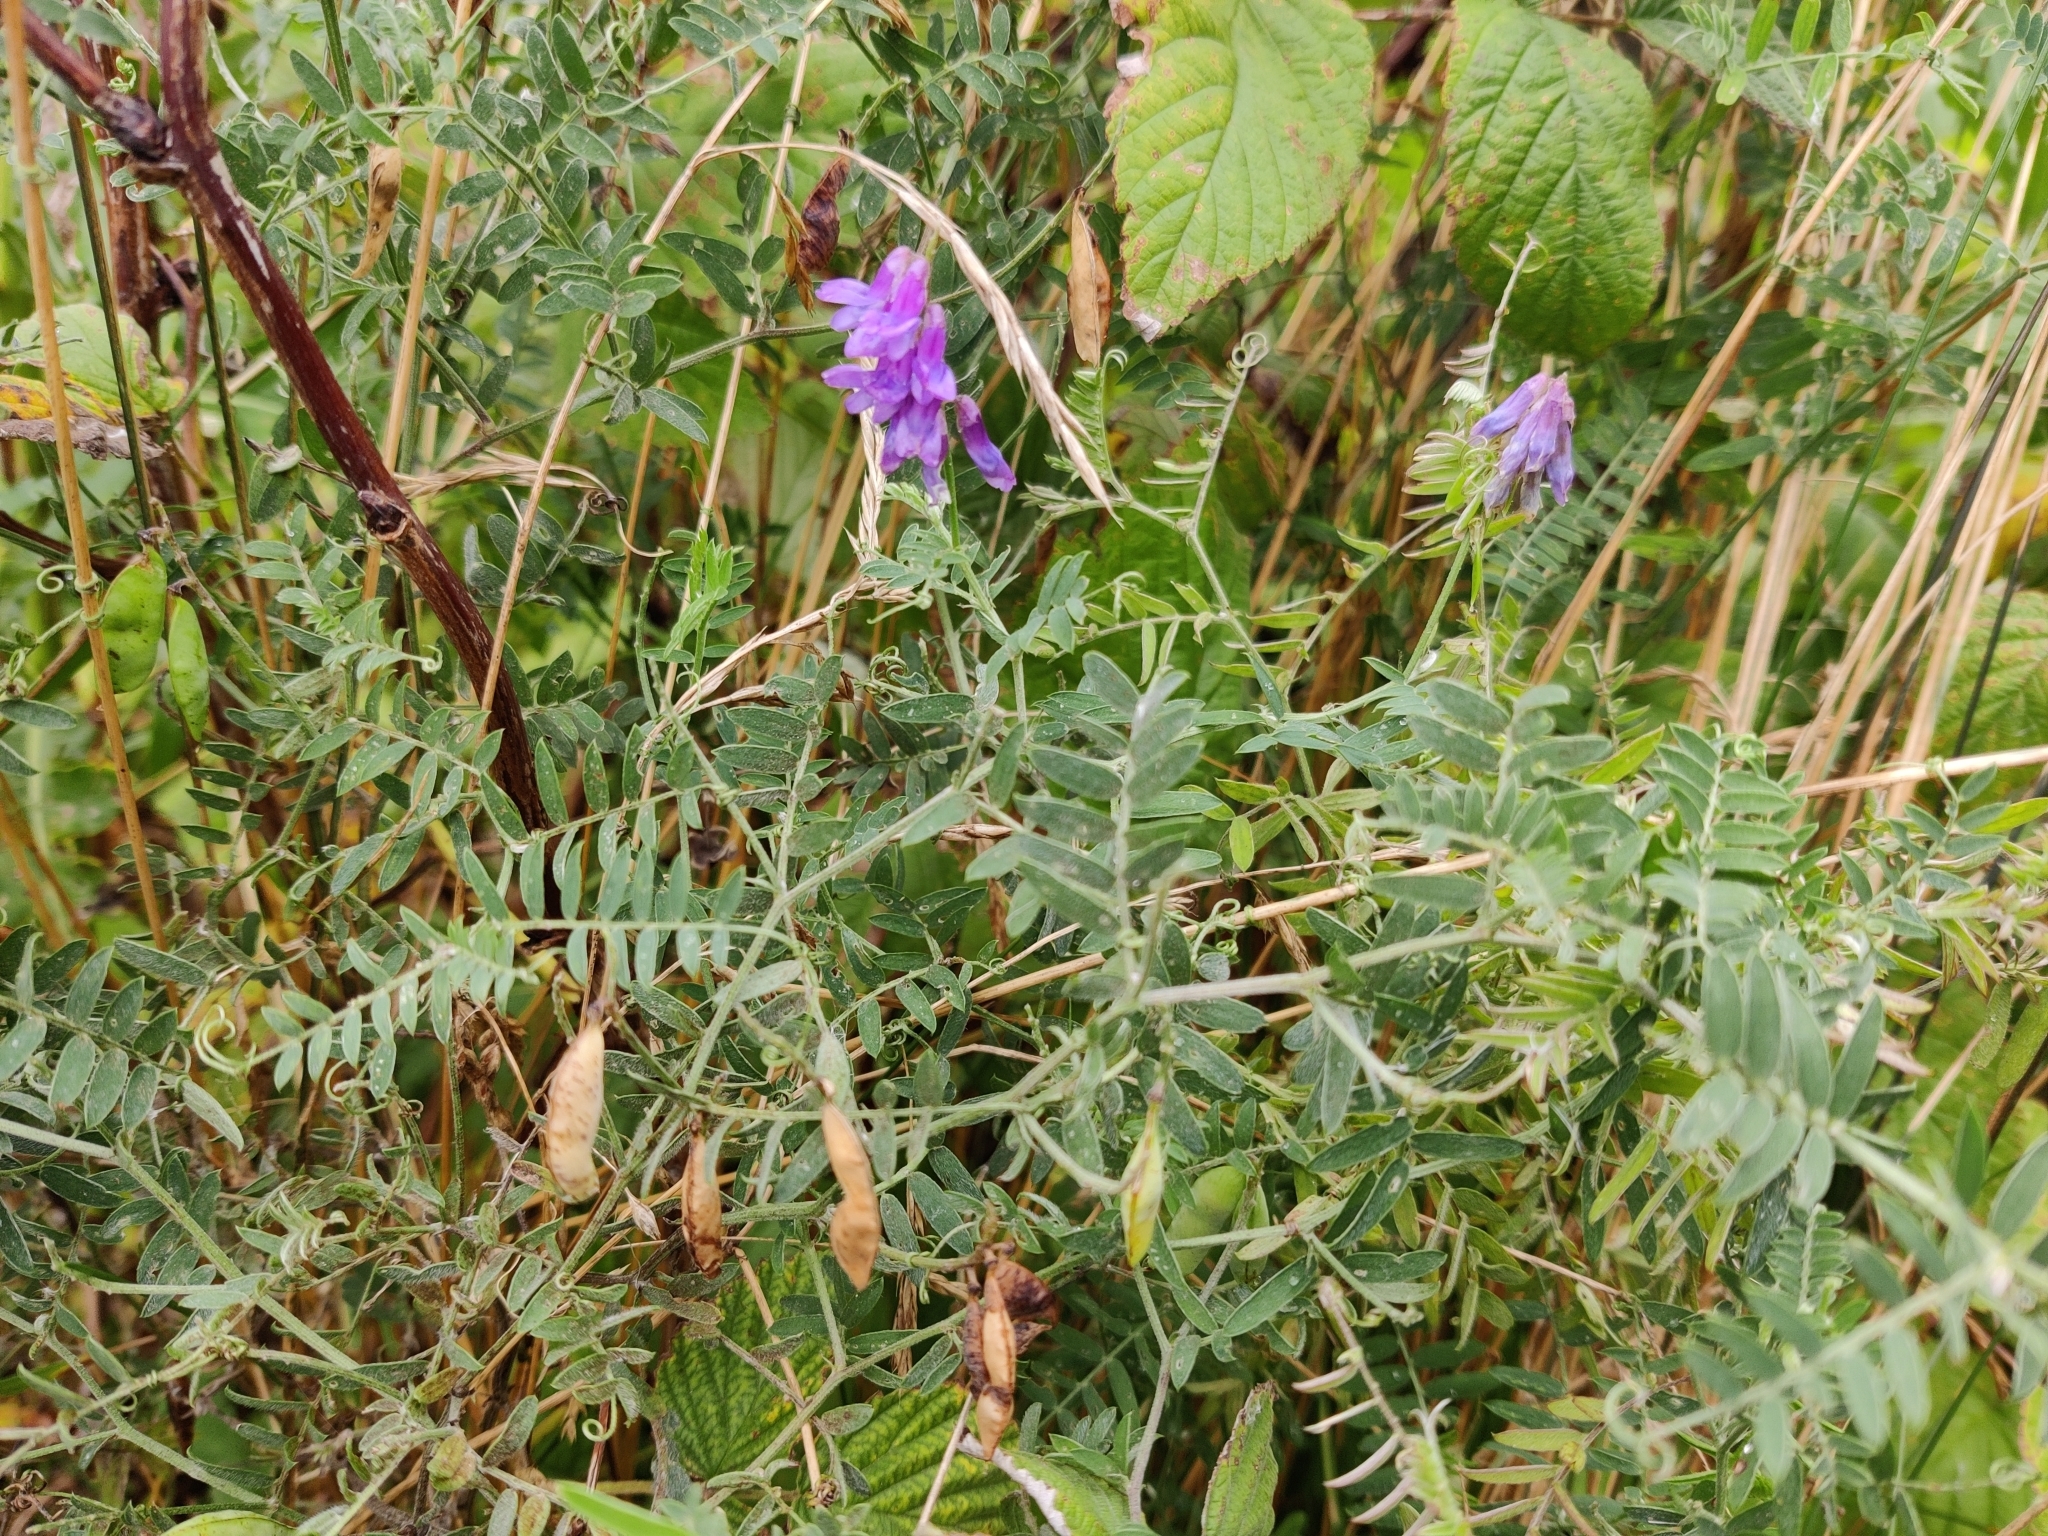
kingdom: Plantae
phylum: Tracheophyta
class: Magnoliopsida
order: Fabales
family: Fabaceae
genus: Vicia
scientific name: Vicia cracca
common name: Bird vetch
